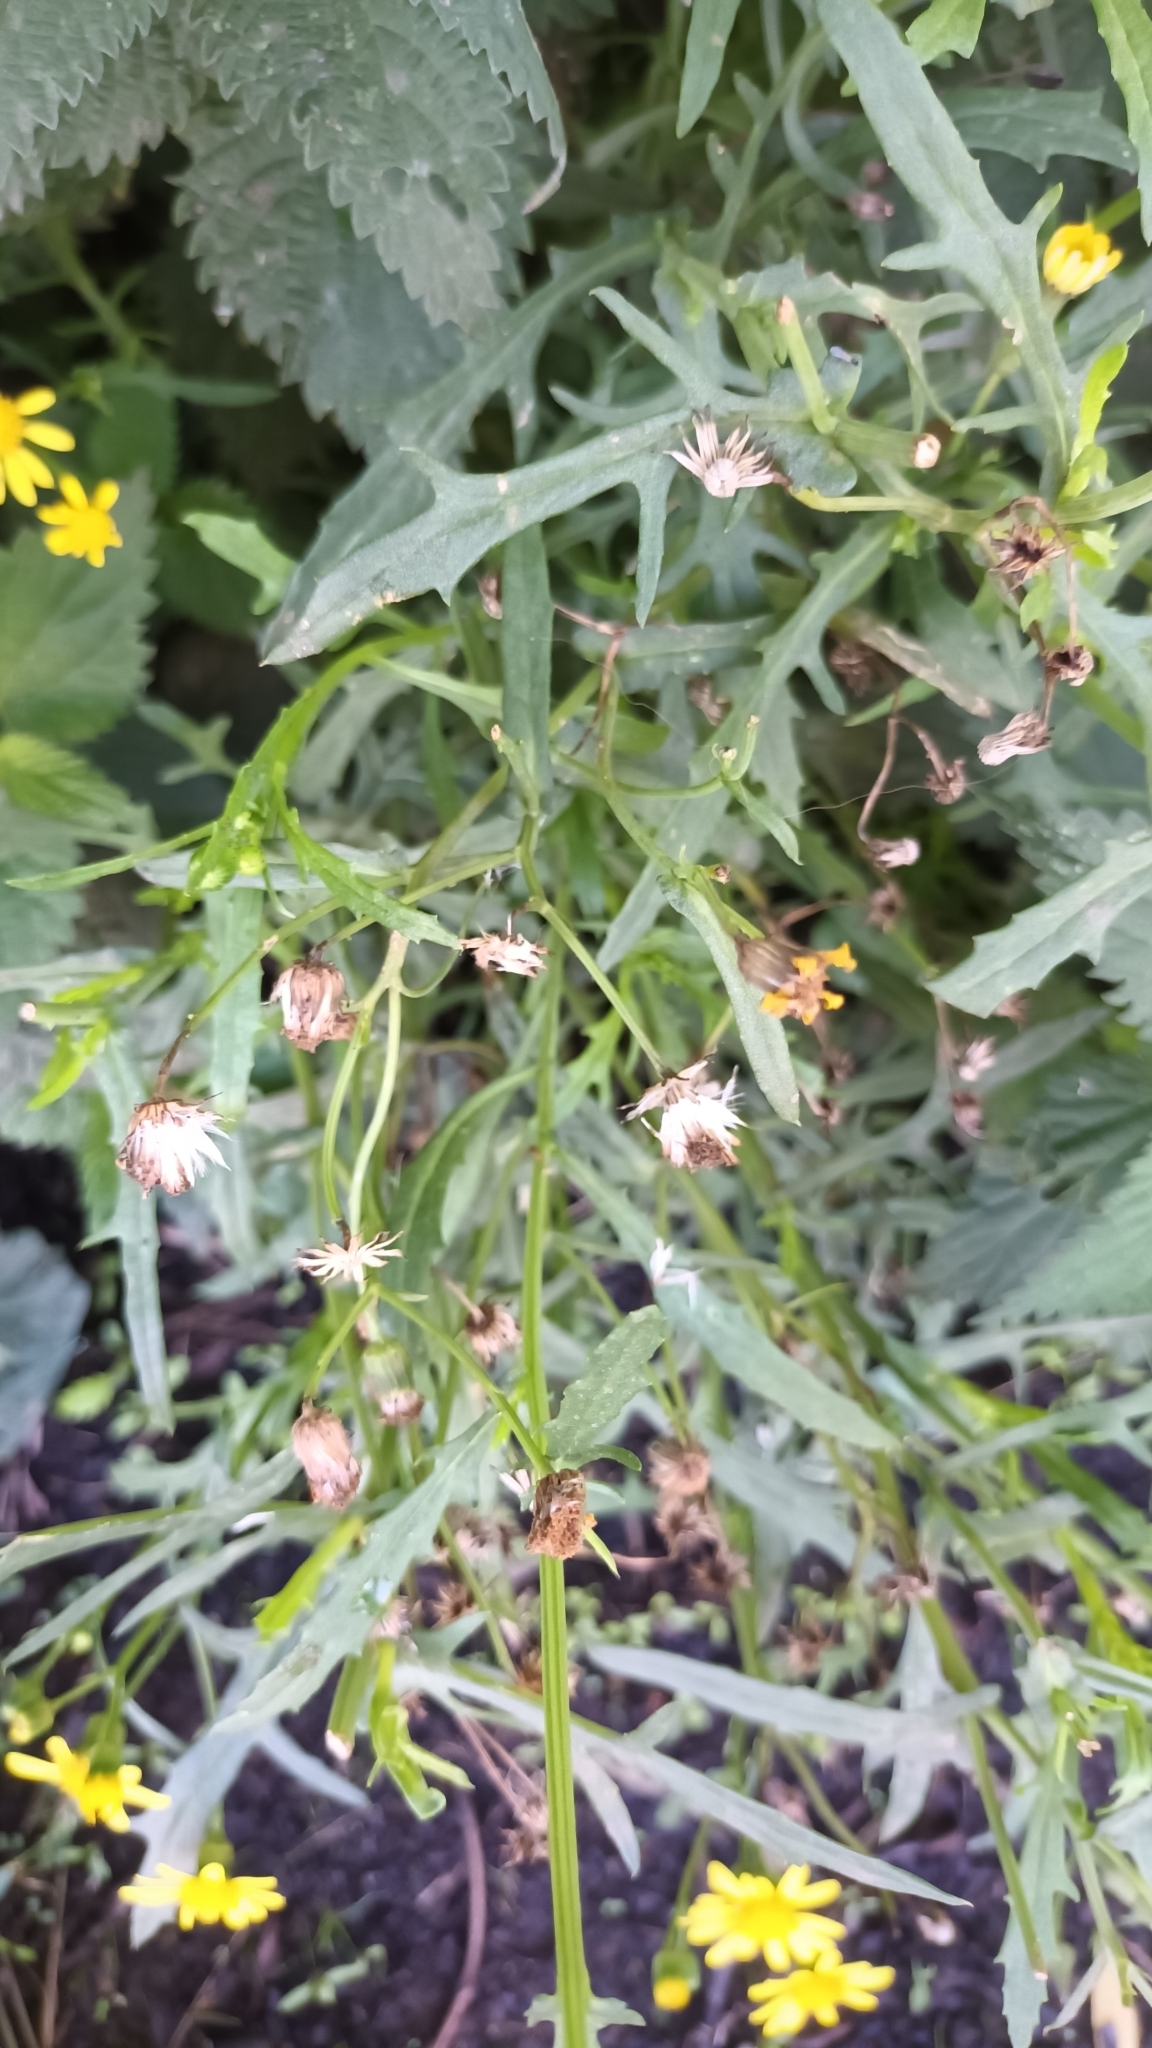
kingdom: Plantae
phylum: Tracheophyta
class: Magnoliopsida
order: Asterales
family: Asteraceae
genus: Senecio
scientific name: Senecio squalidus
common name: Oxford ragwort
